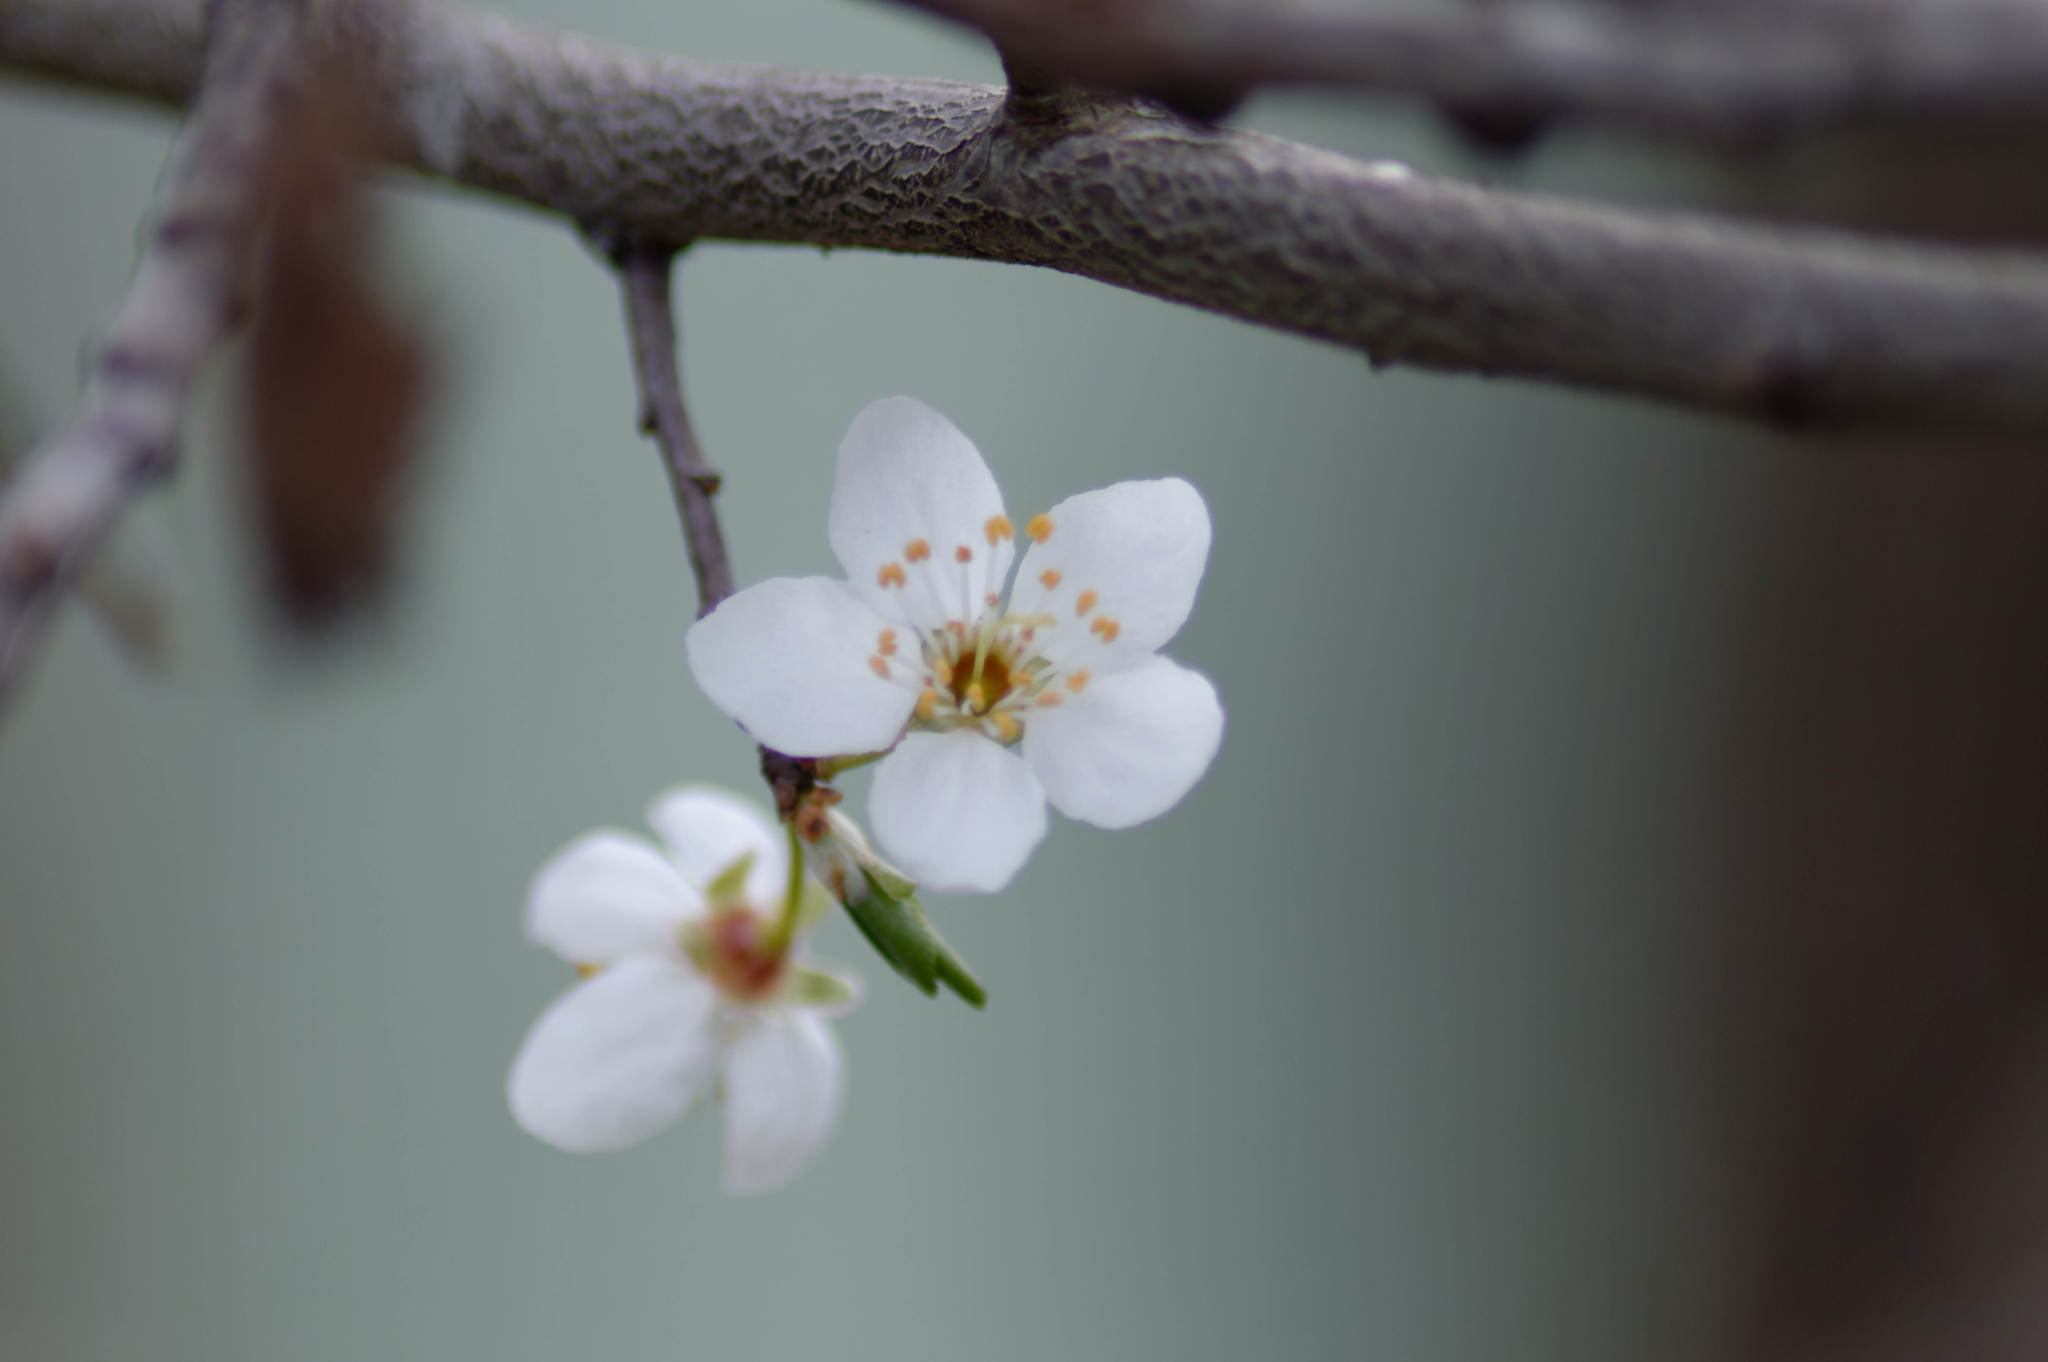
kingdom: Plantae
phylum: Tracheophyta
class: Magnoliopsida
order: Rosales
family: Rosaceae
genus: Prunus
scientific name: Prunus cerasifera
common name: Cherry plum
